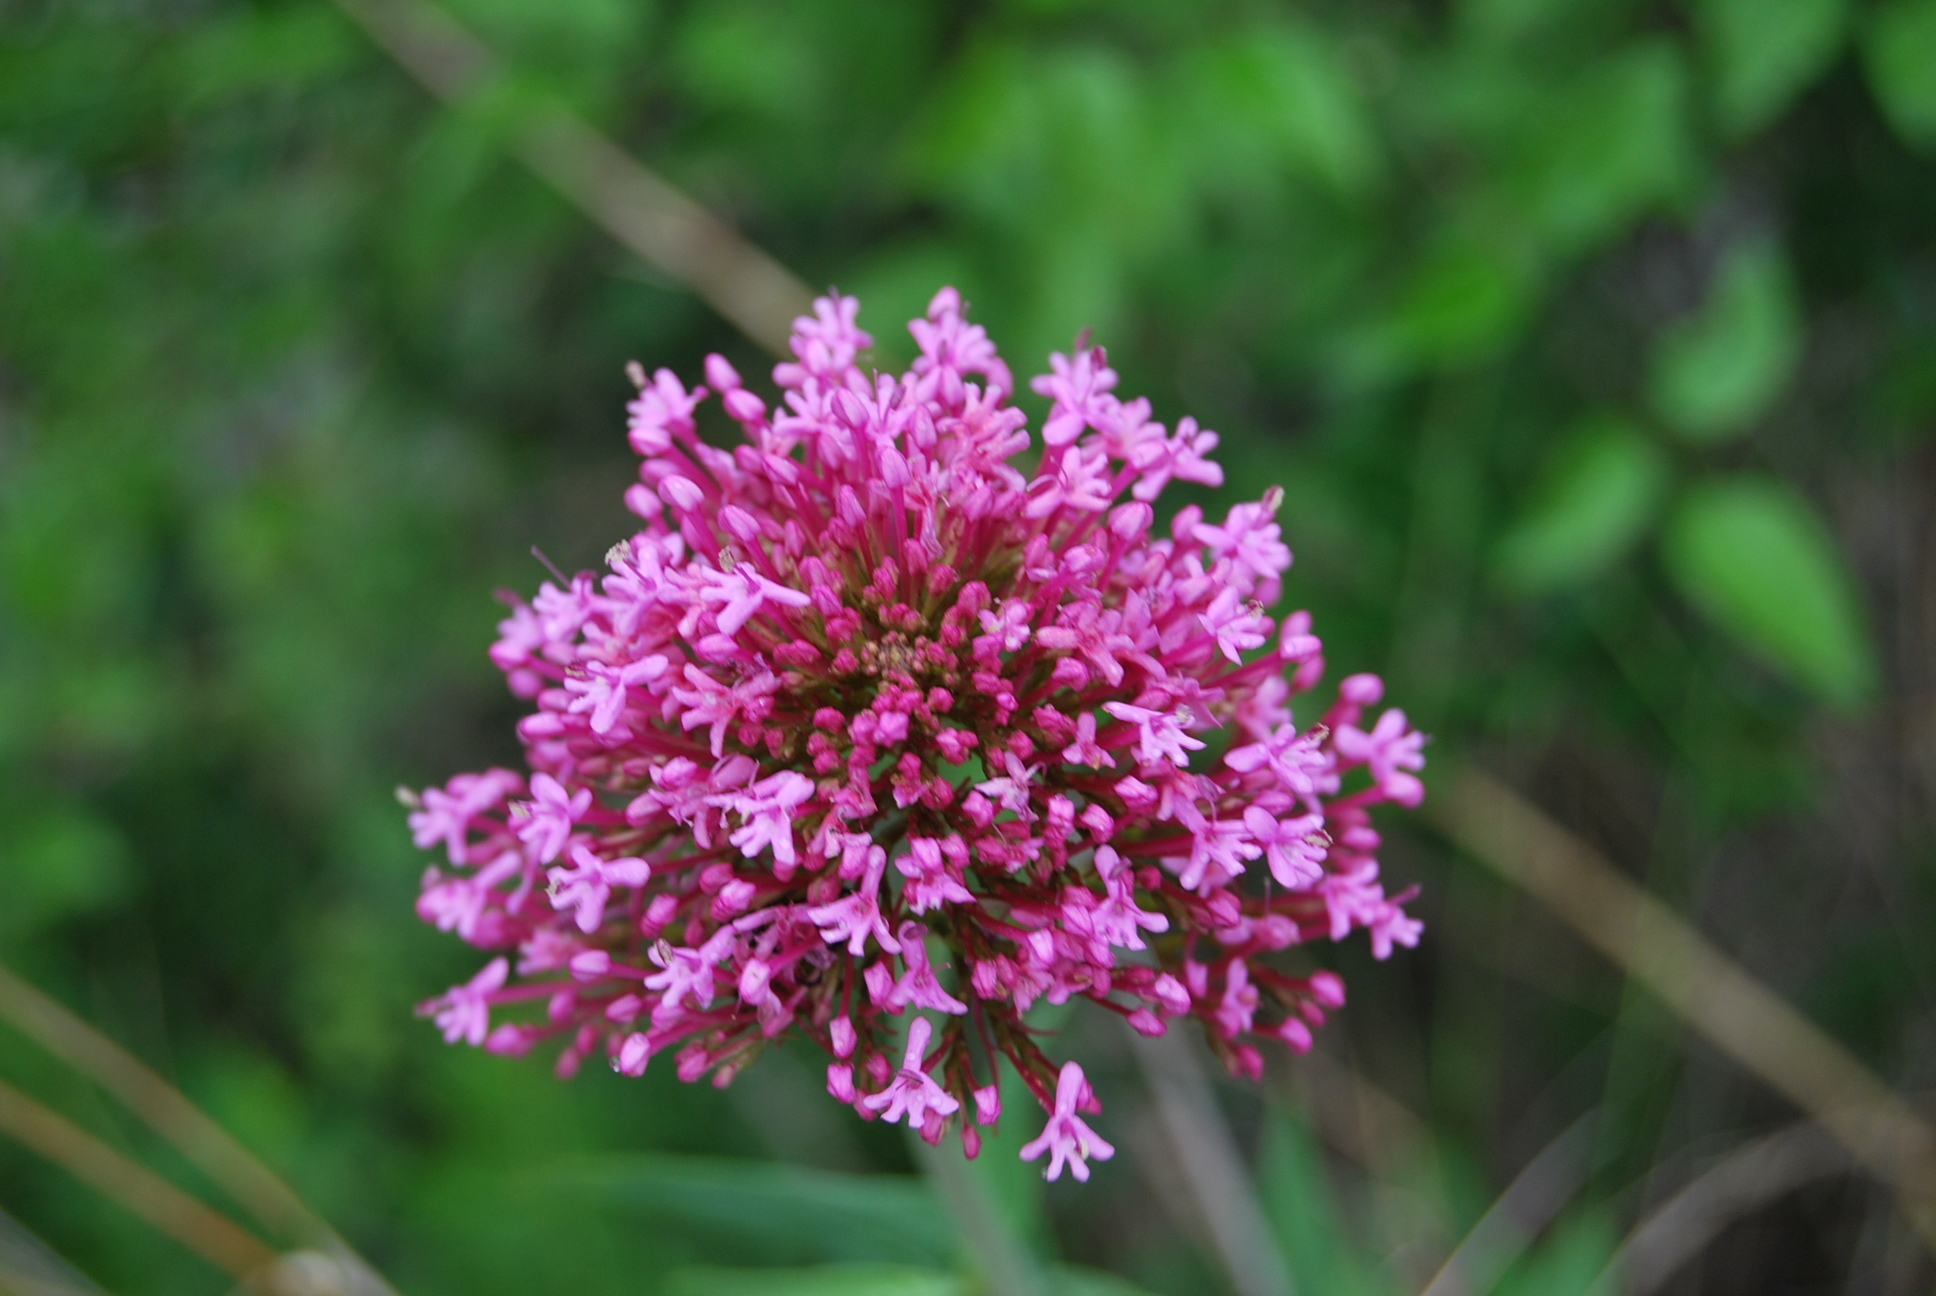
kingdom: Plantae
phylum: Tracheophyta
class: Magnoliopsida
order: Dipsacales
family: Caprifoliaceae
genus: Centranthus
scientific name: Centranthus ruber
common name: Red valerian
